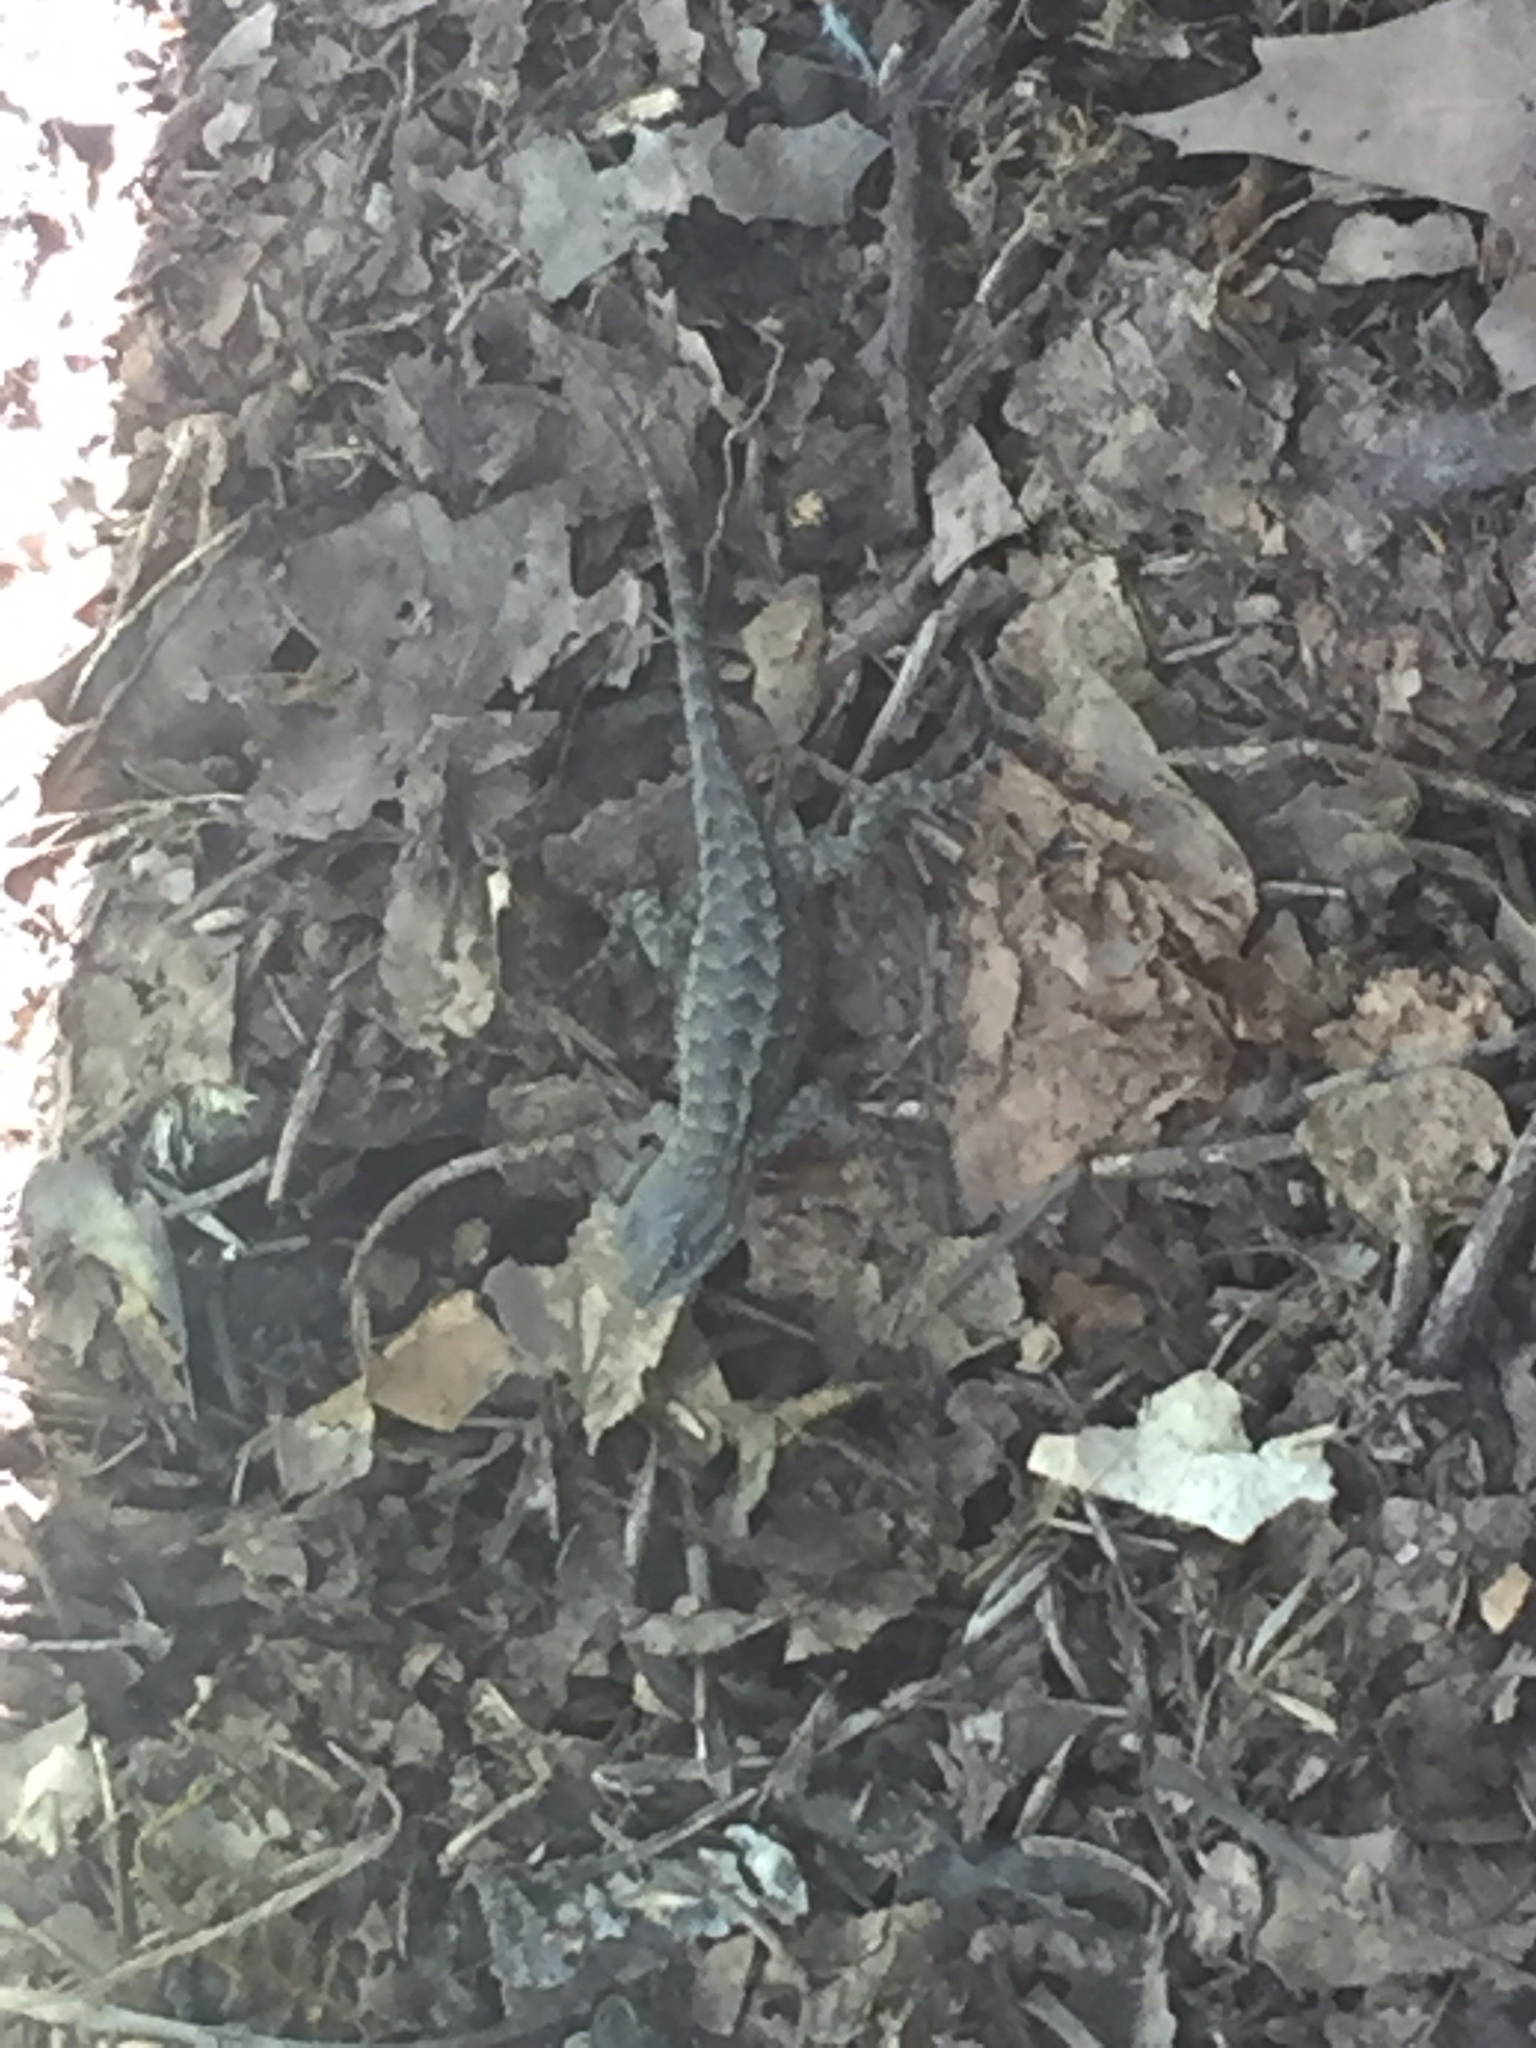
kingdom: Animalia
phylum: Chordata
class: Squamata
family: Phrynosomatidae
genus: Sceloporus
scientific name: Sceloporus occidentalis
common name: Western fence lizard
